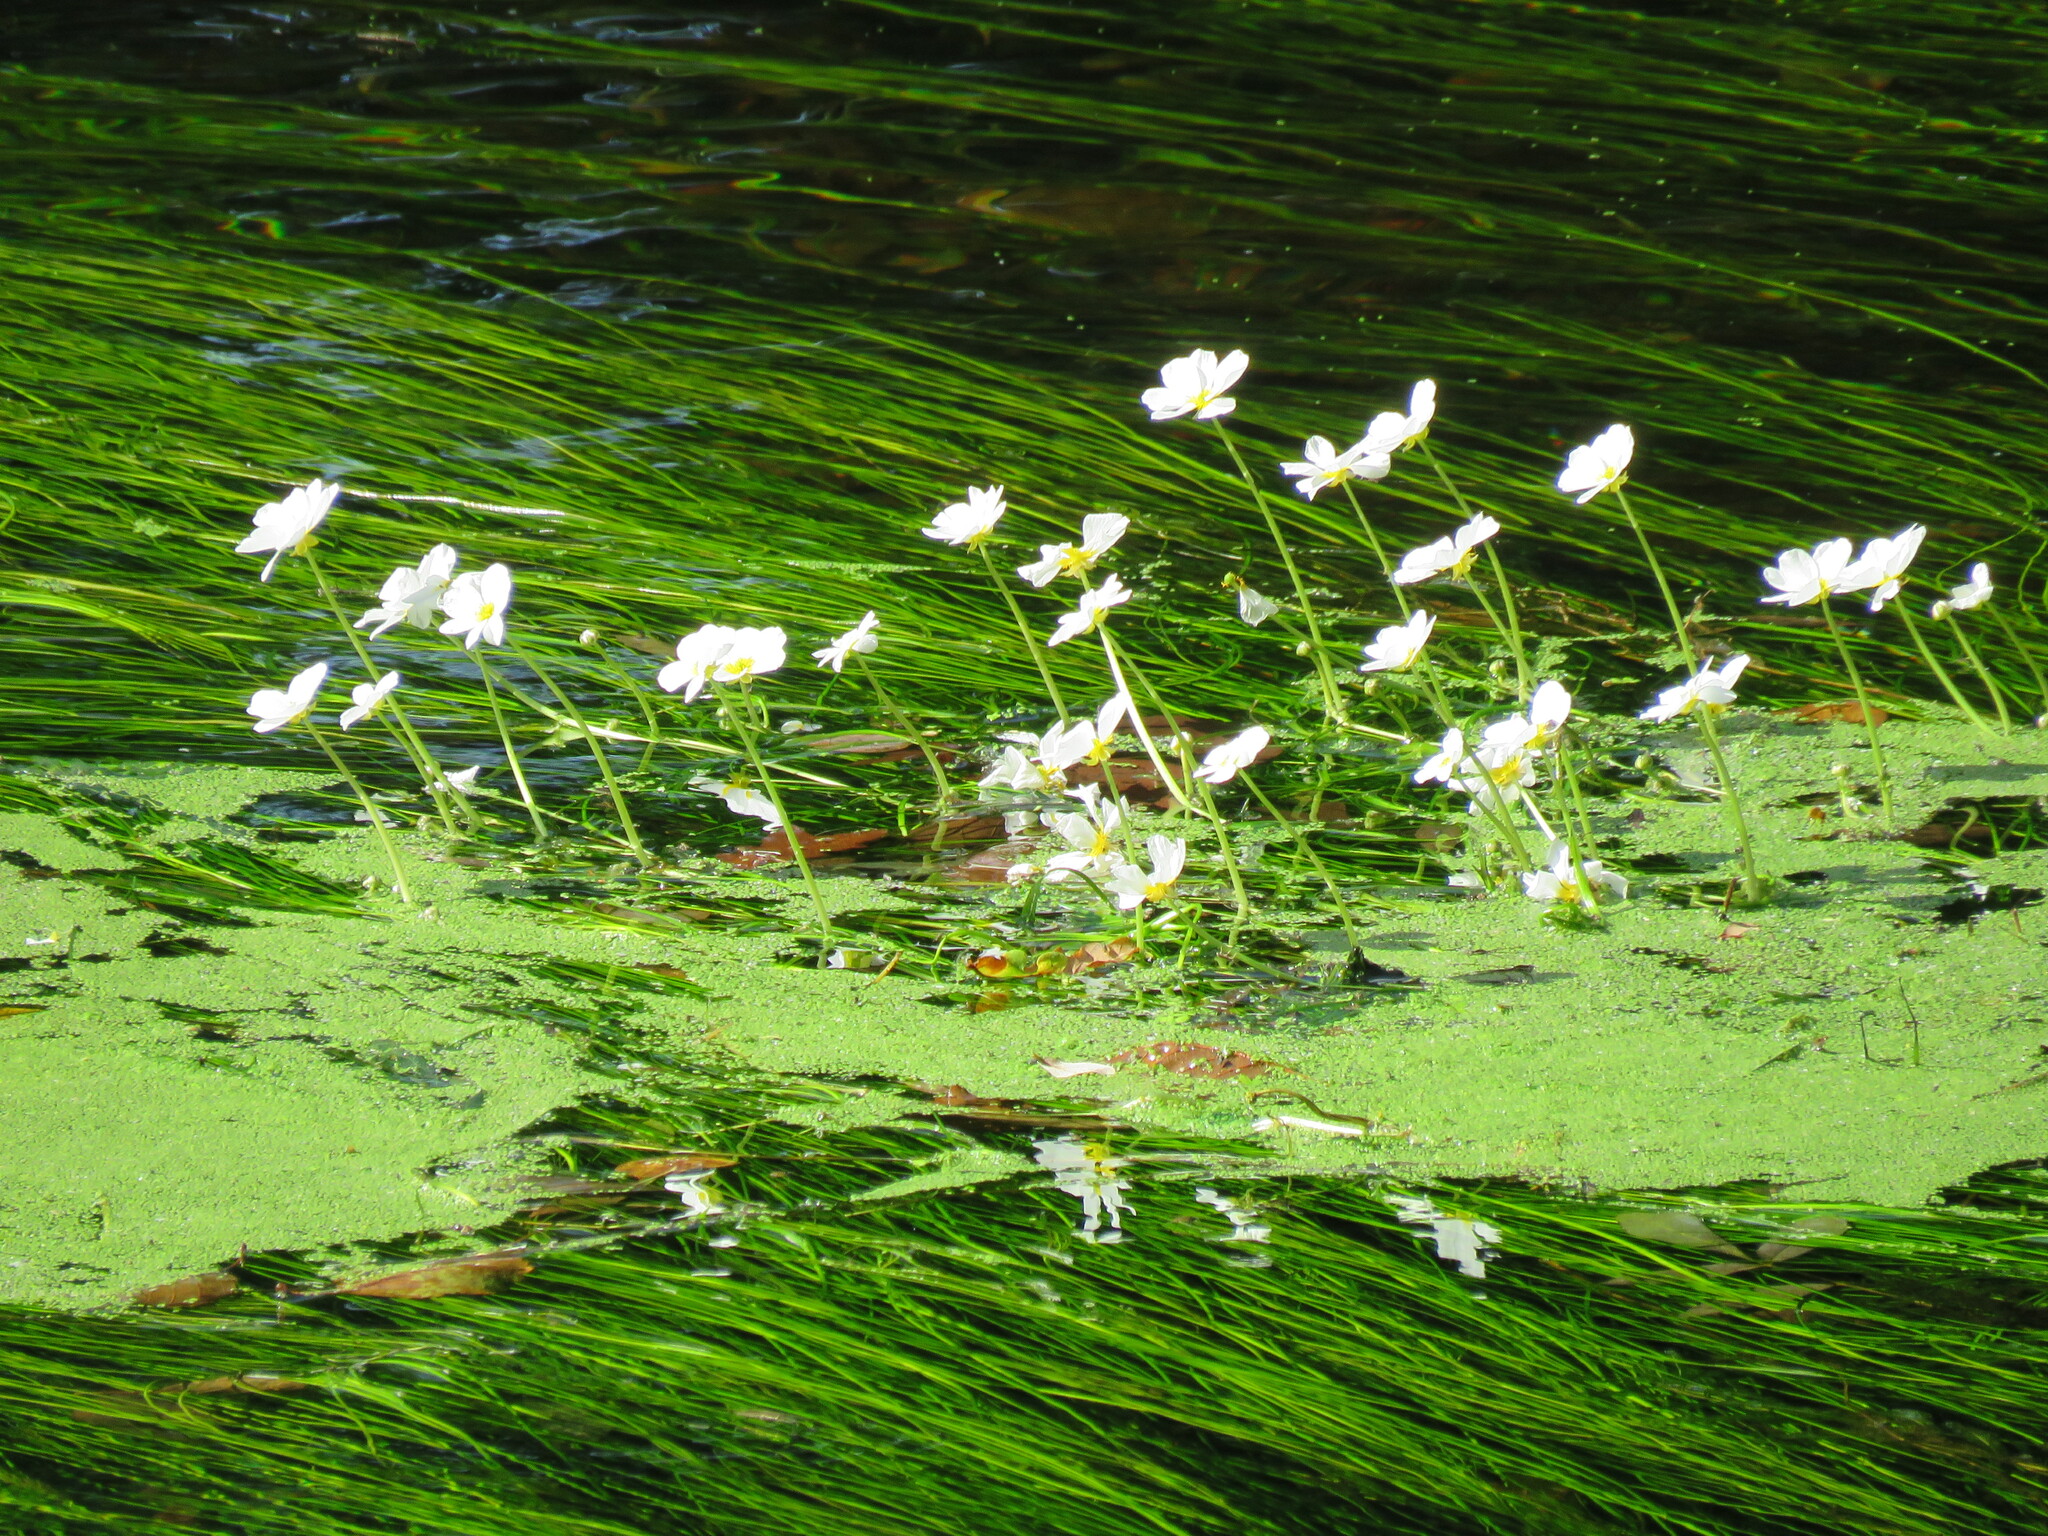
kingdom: Plantae
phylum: Tracheophyta
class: Magnoliopsida
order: Ranunculales
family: Ranunculaceae
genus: Ranunculus
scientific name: Ranunculus aquatilis
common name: Common water-crowfoot
